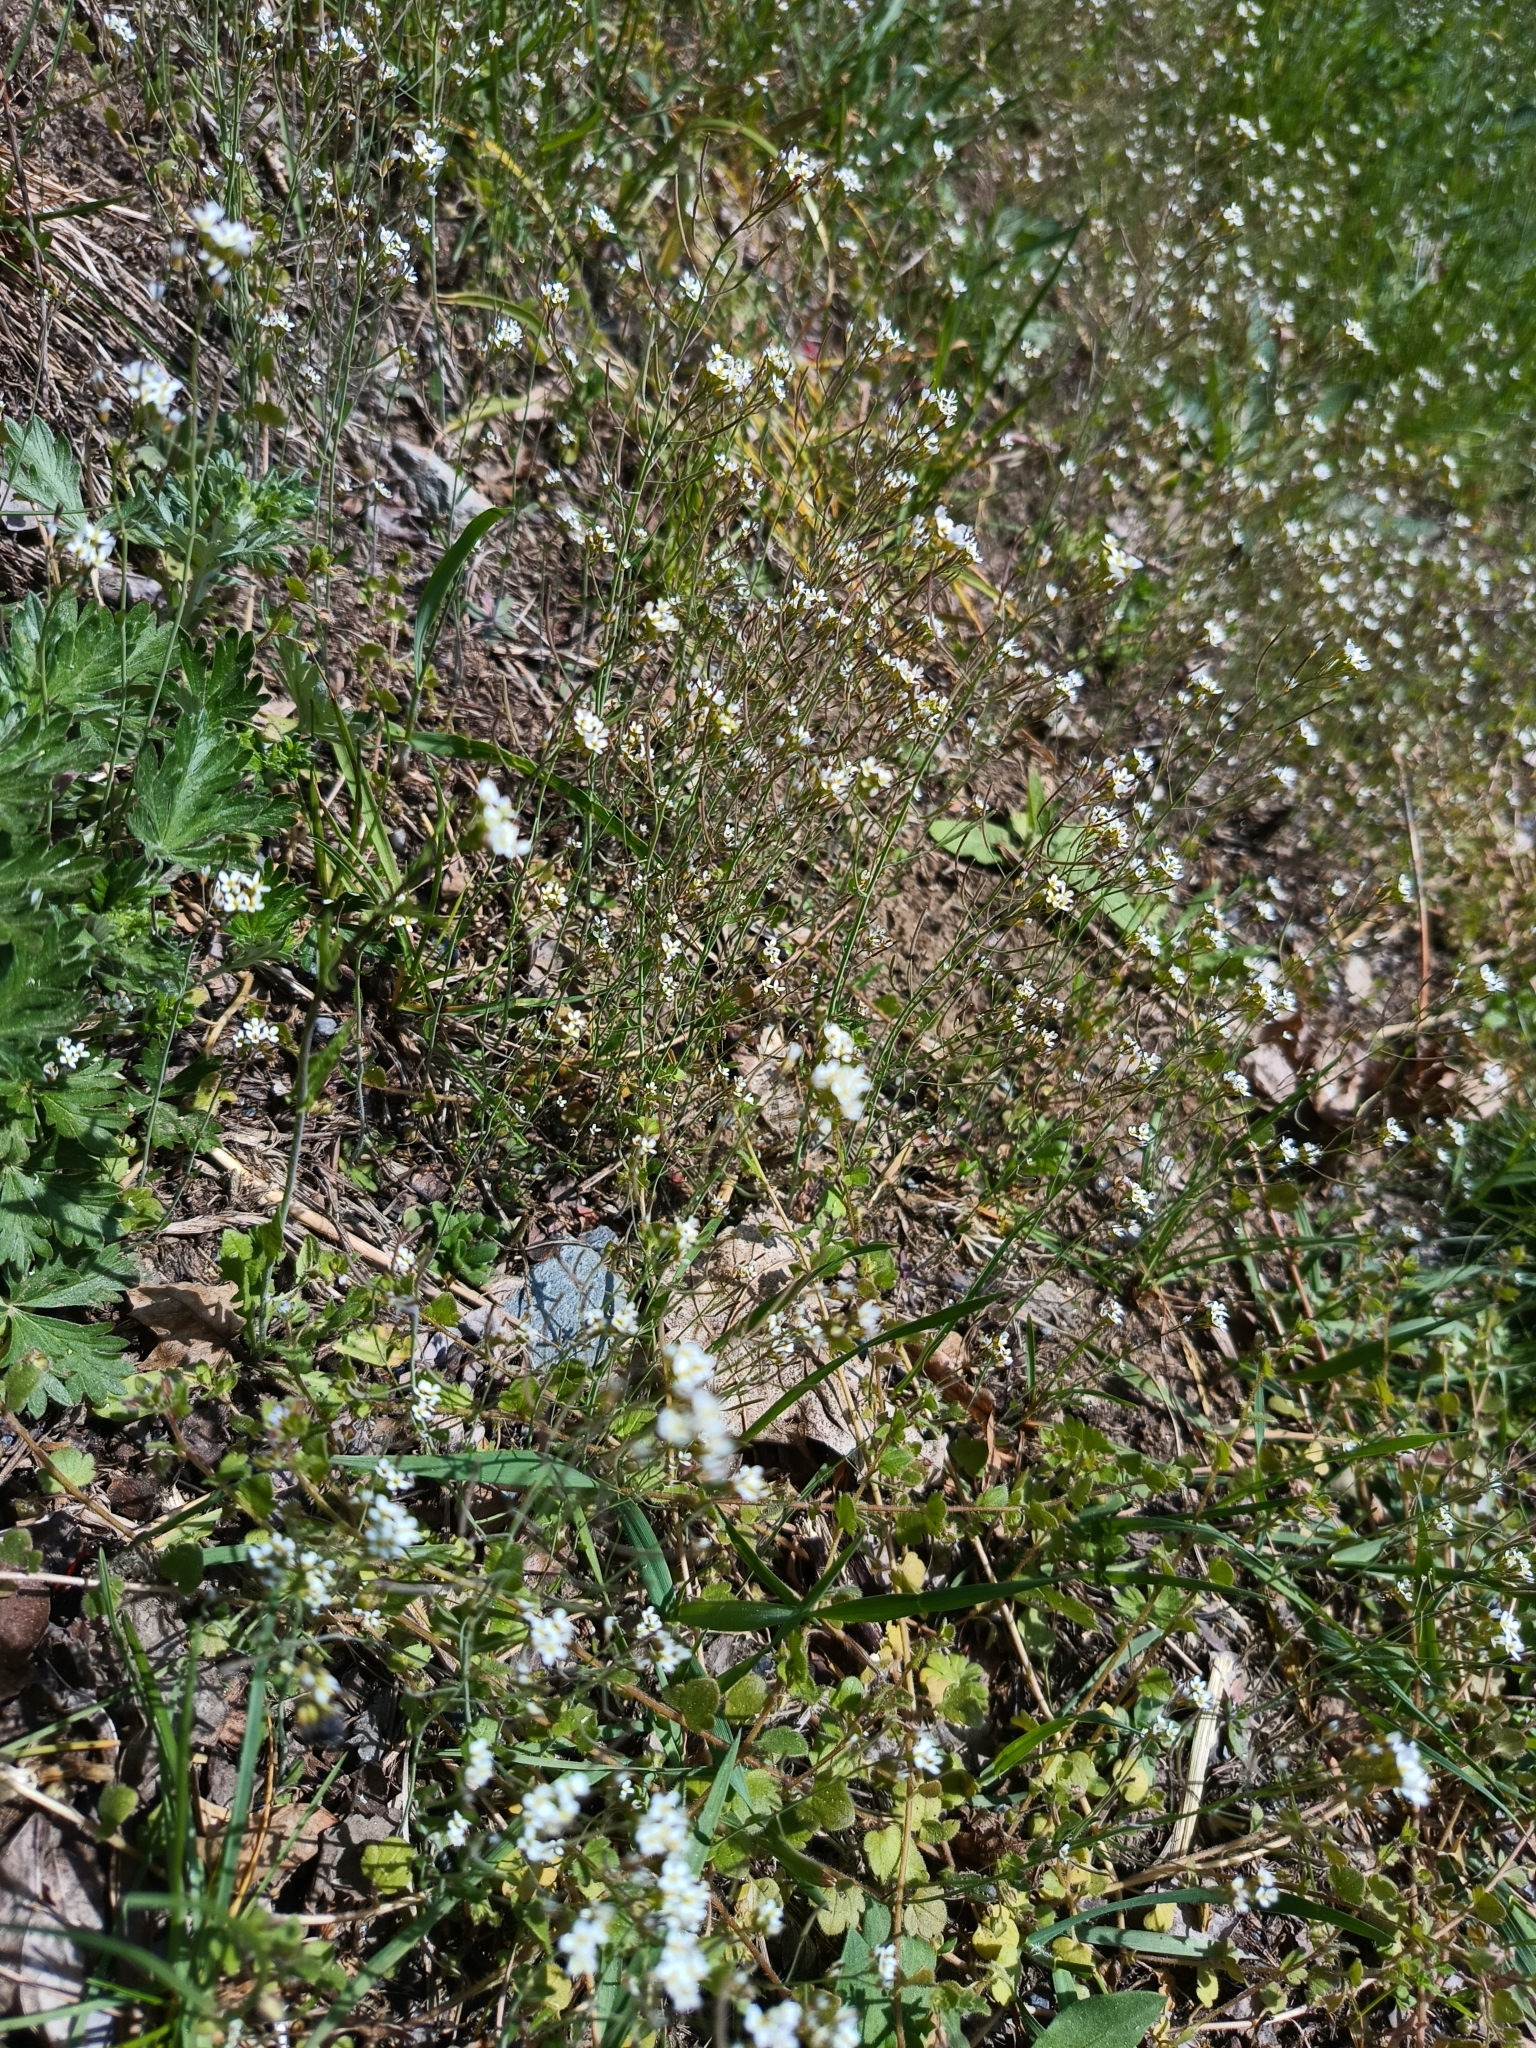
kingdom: Plantae
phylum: Tracheophyta
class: Magnoliopsida
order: Brassicales
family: Brassicaceae
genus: Arabidopsis
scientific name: Arabidopsis thaliana
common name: Thale cress
